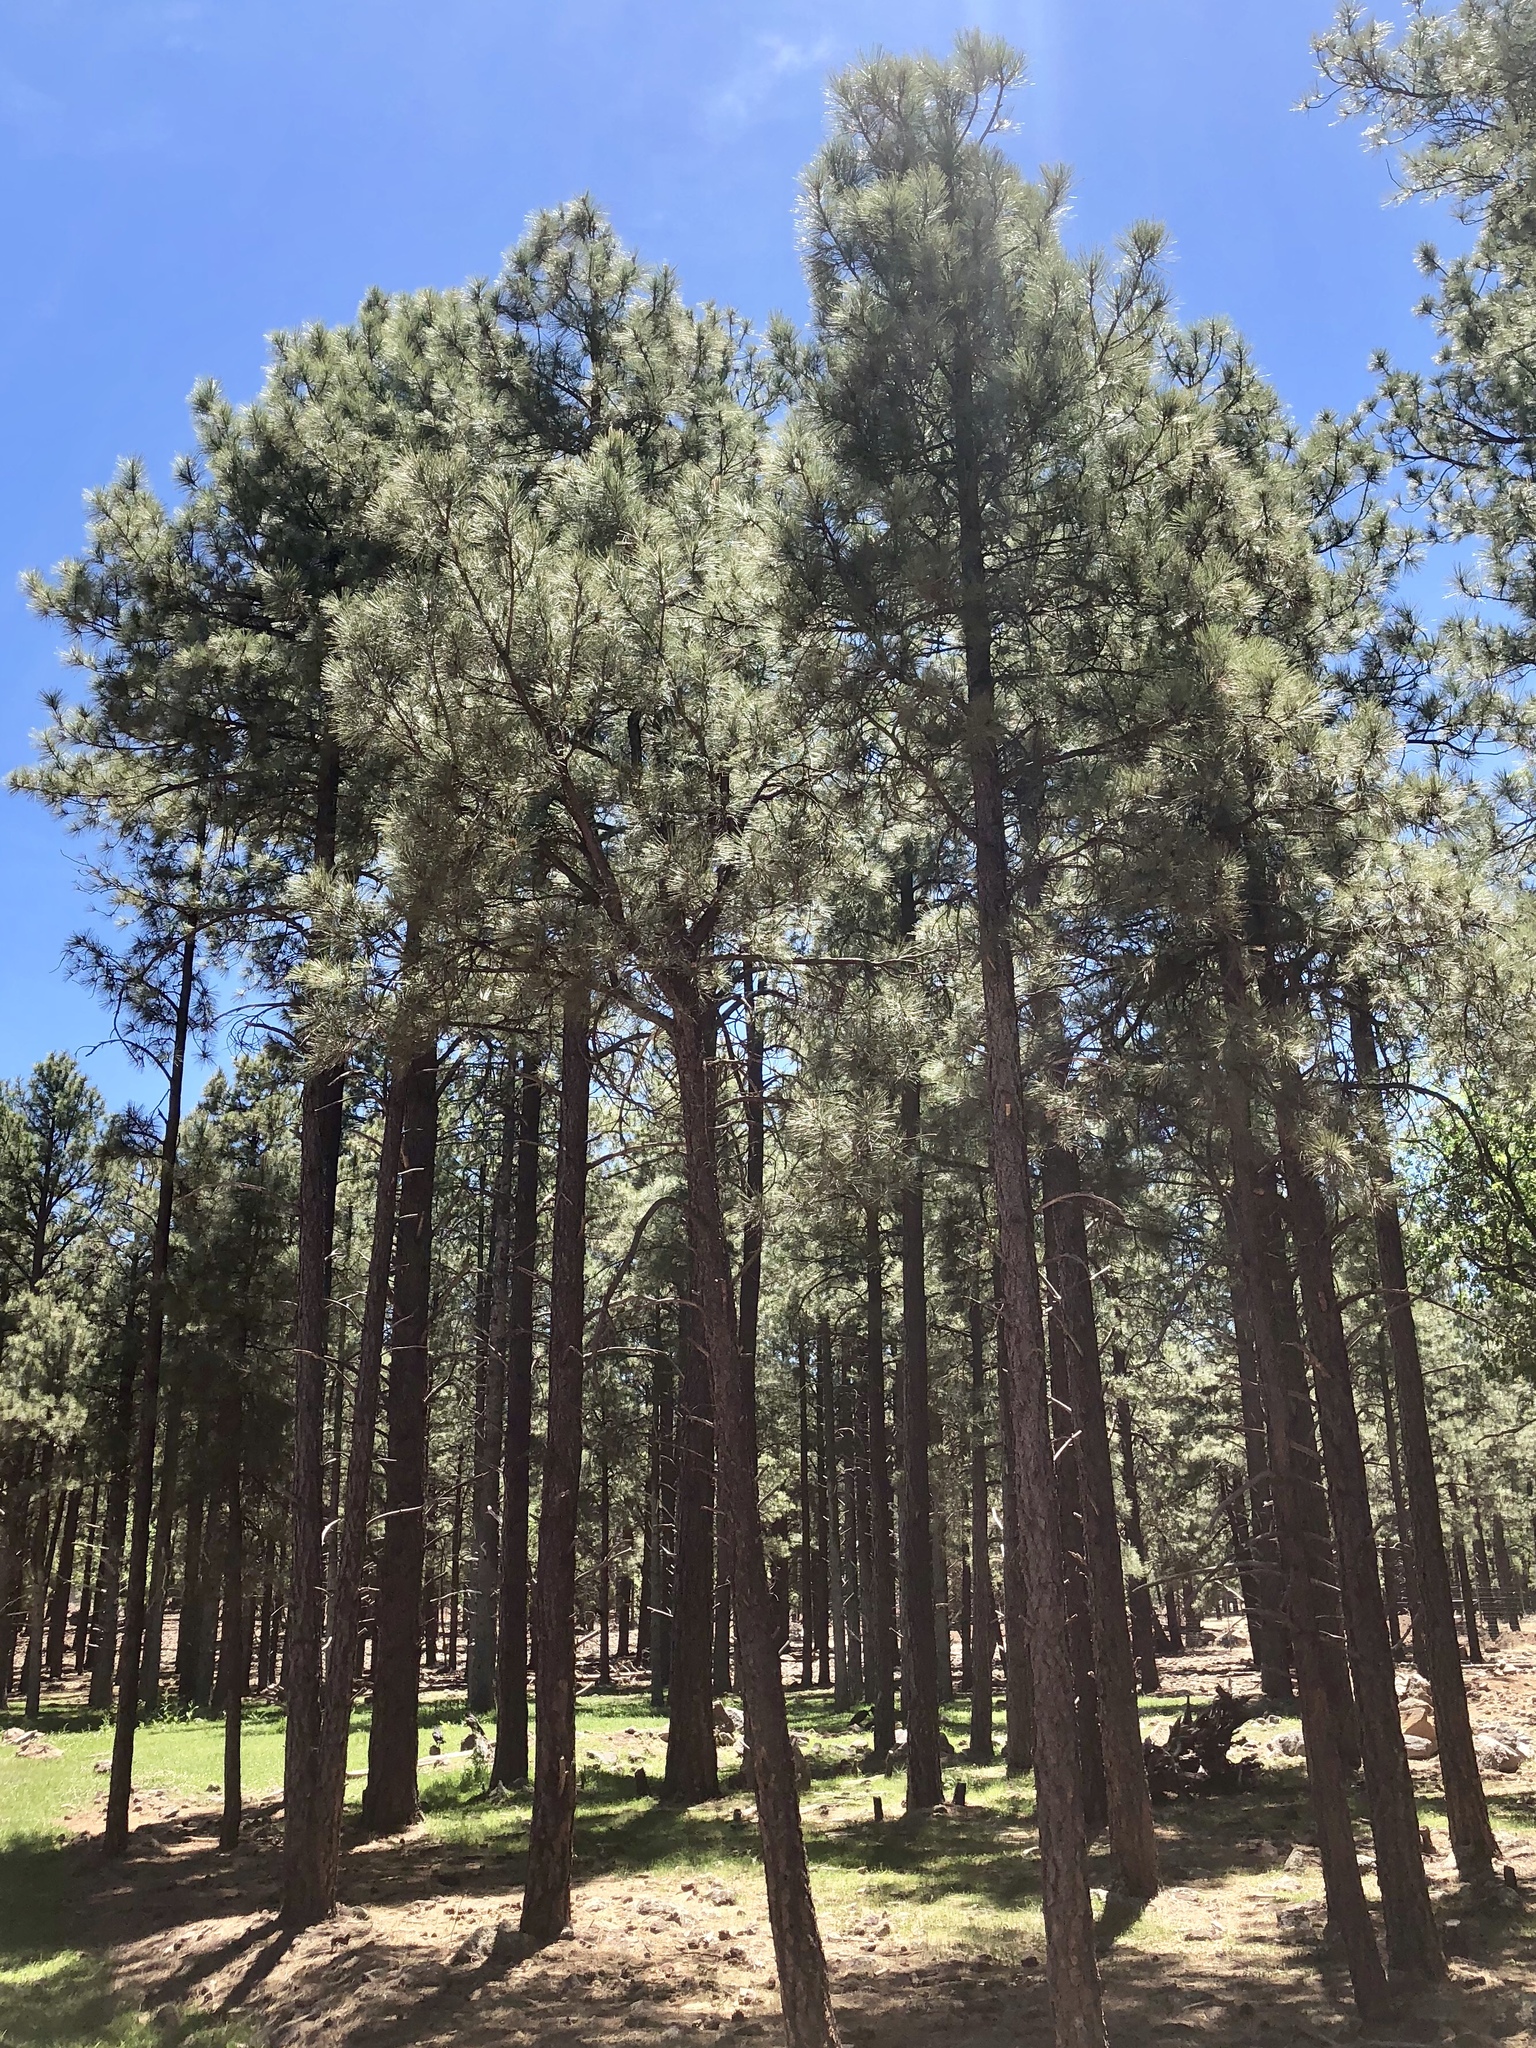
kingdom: Plantae
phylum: Tracheophyta
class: Pinopsida
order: Pinales
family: Pinaceae
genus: Pinus
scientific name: Pinus ponderosa
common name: Western yellow-pine
